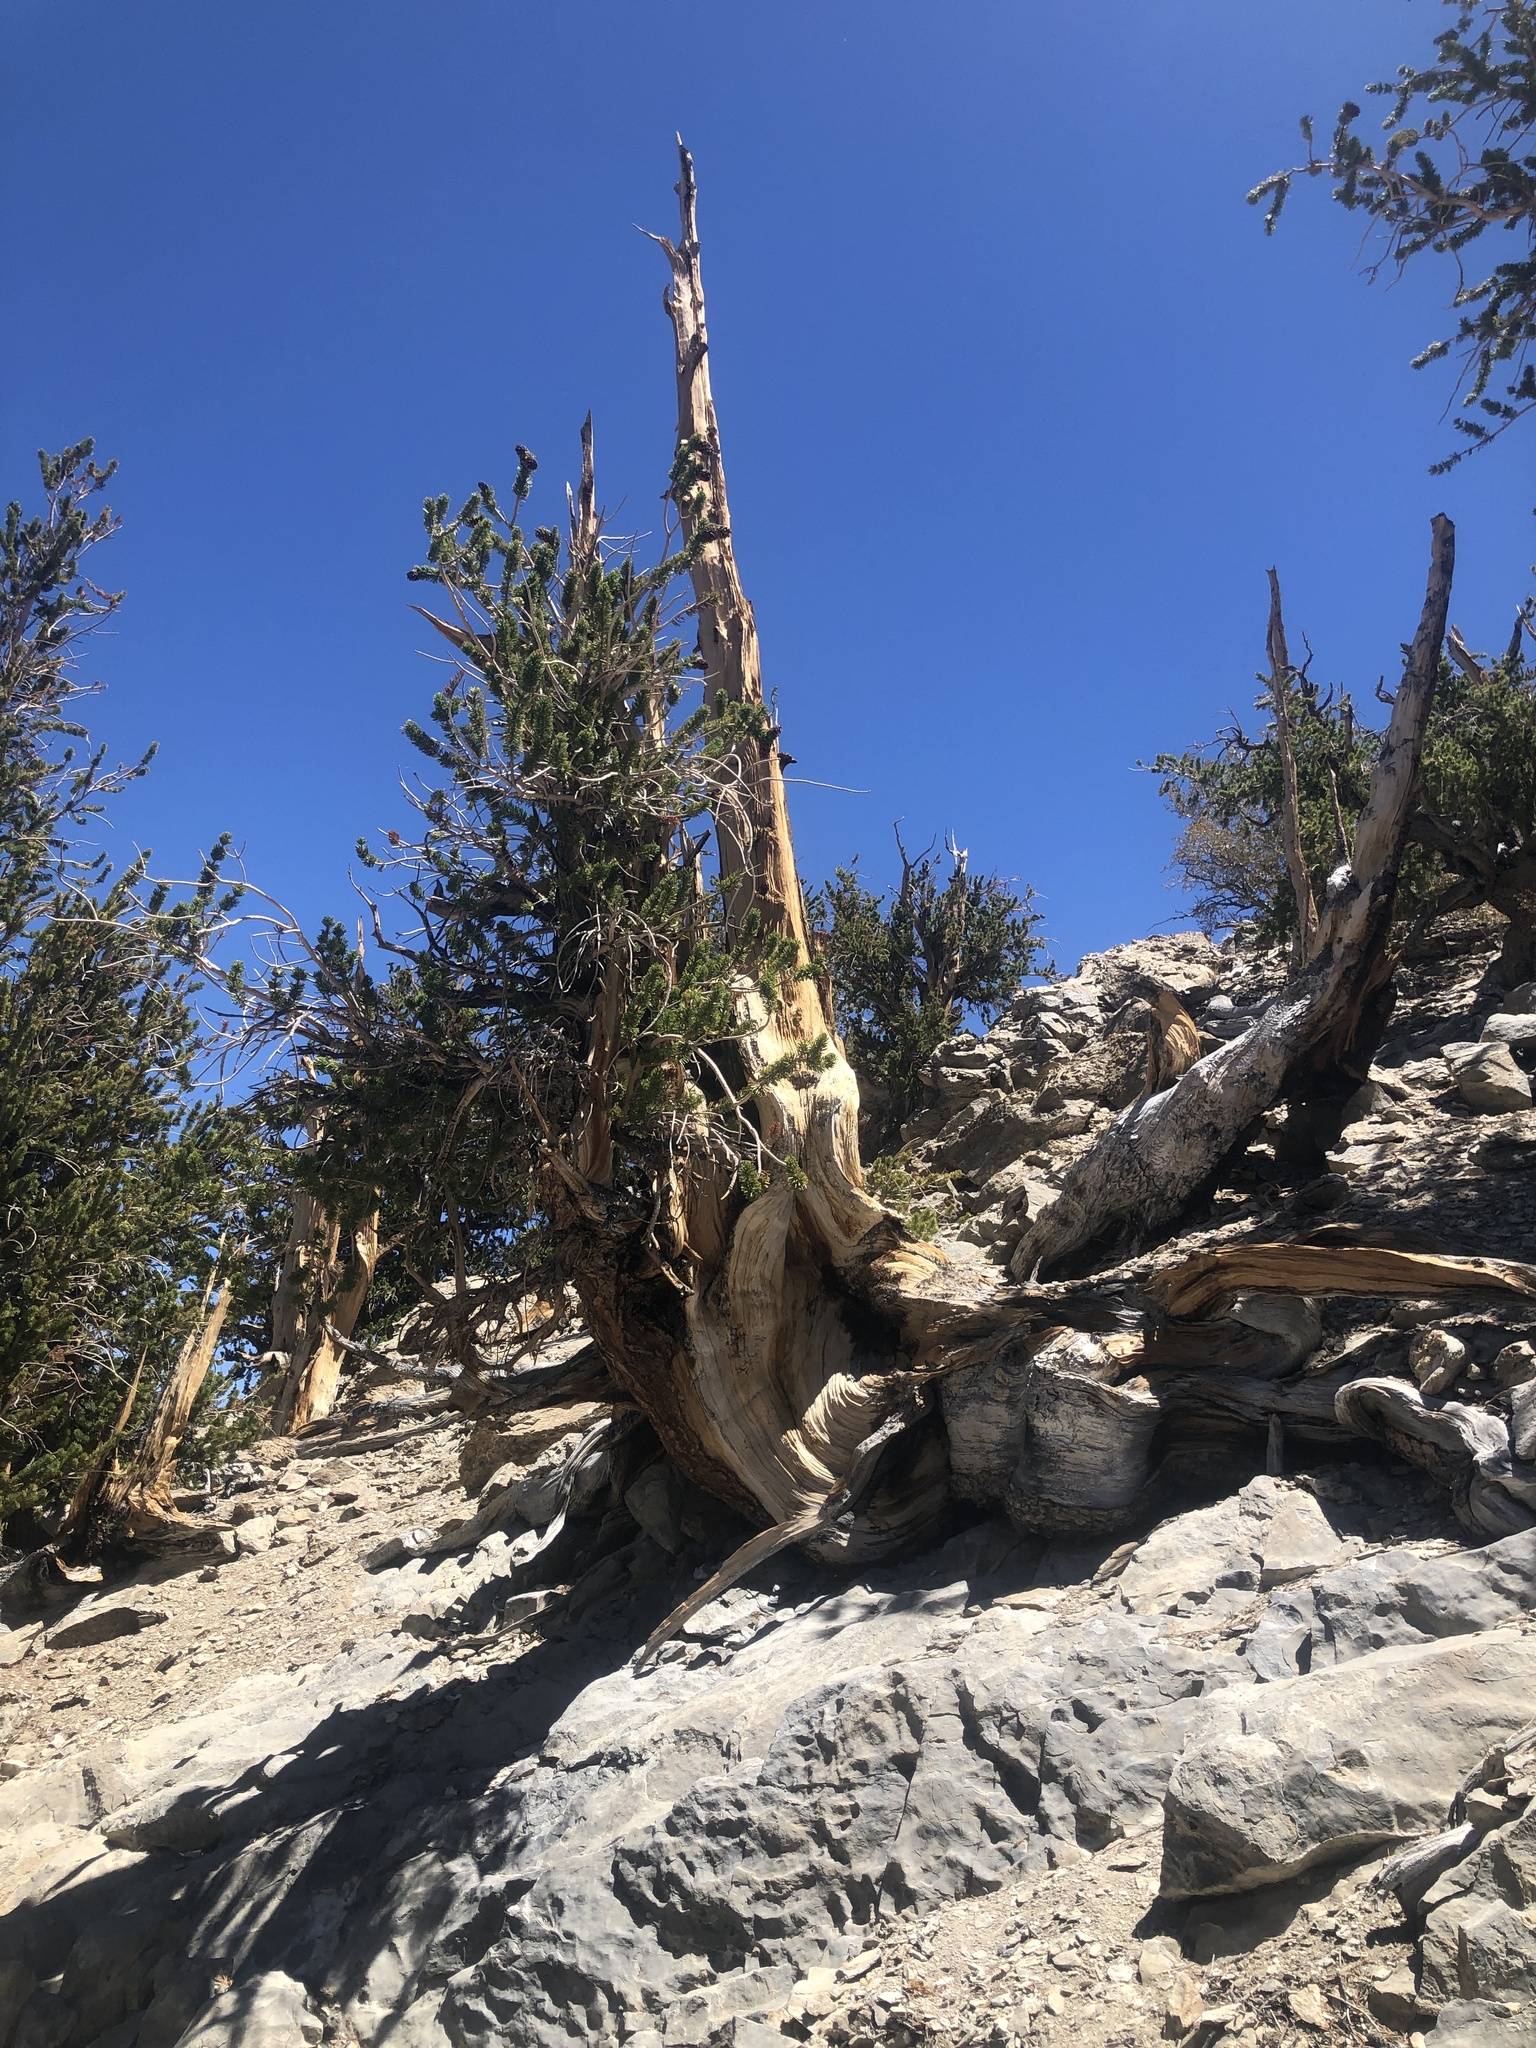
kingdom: Plantae
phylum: Tracheophyta
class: Pinopsida
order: Pinales
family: Pinaceae
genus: Pinus
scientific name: Pinus longaeva
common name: Intermountain bristlecone pine
